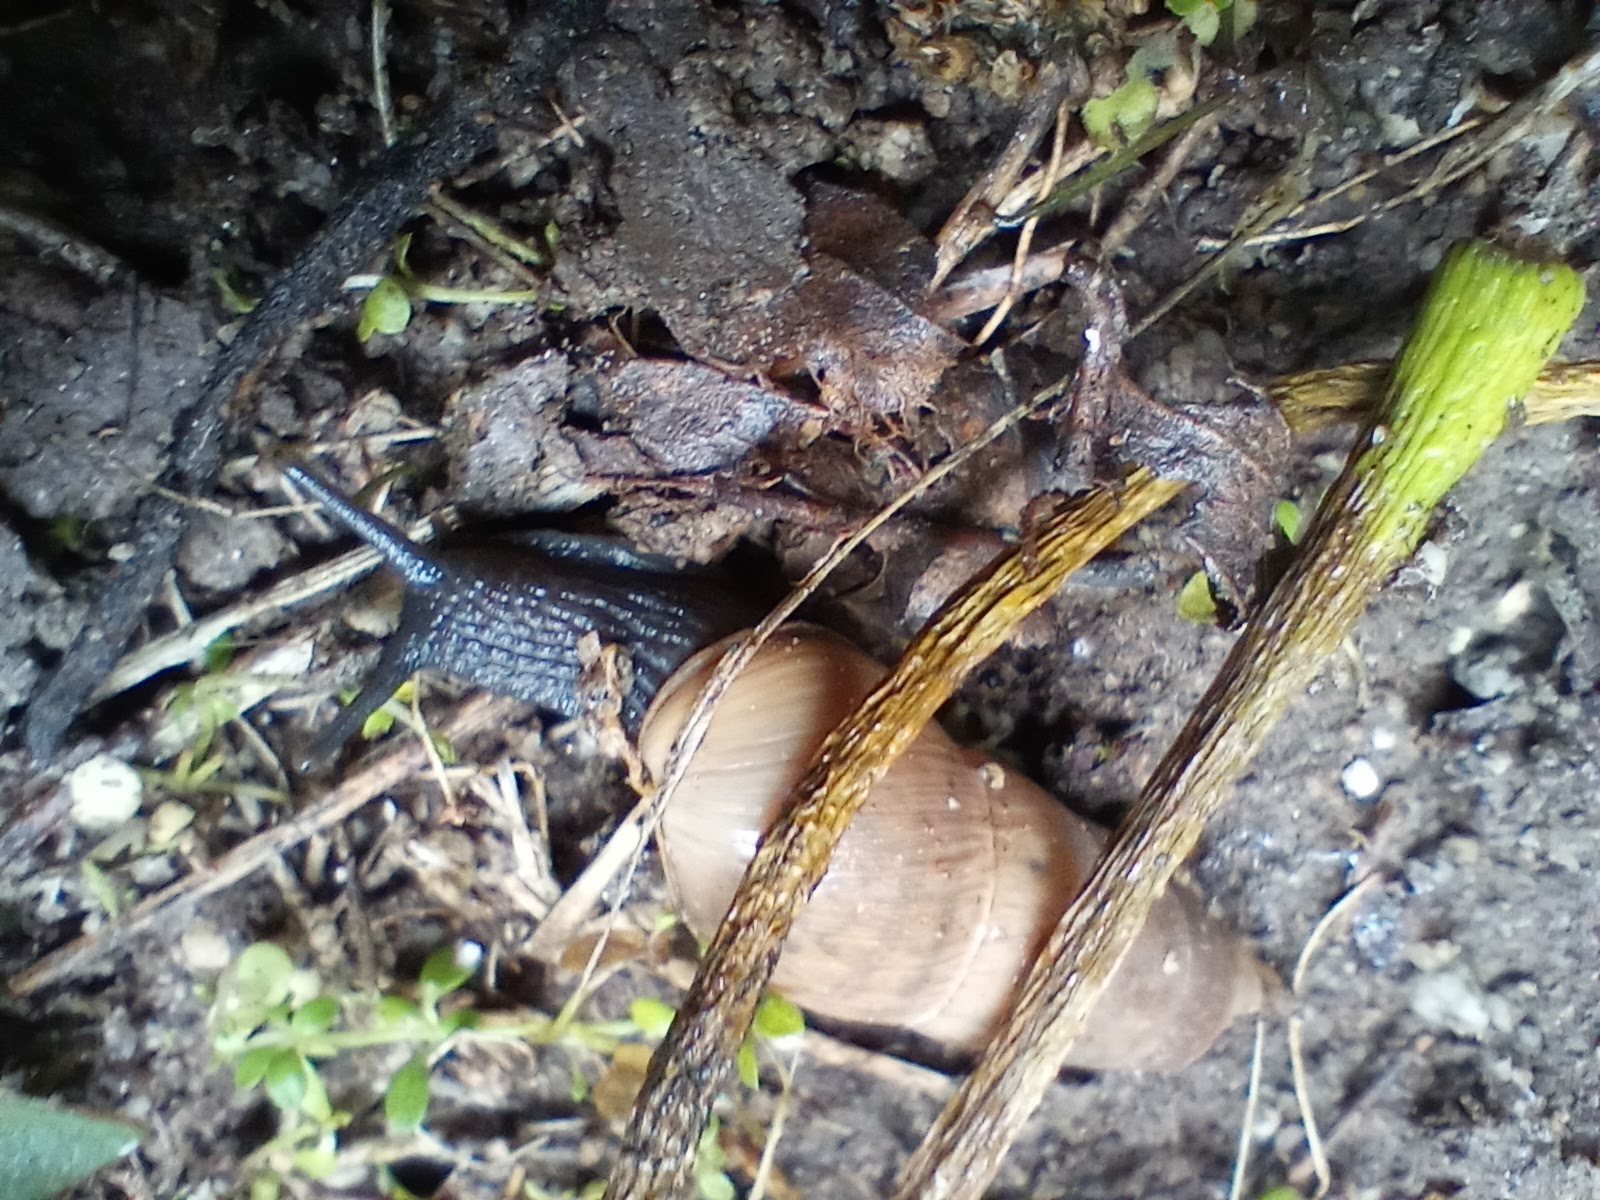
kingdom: Animalia
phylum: Mollusca
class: Gastropoda
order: Stylommatophora
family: Achatinidae
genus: Rumina
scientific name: Rumina decollata
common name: Decollate snail
